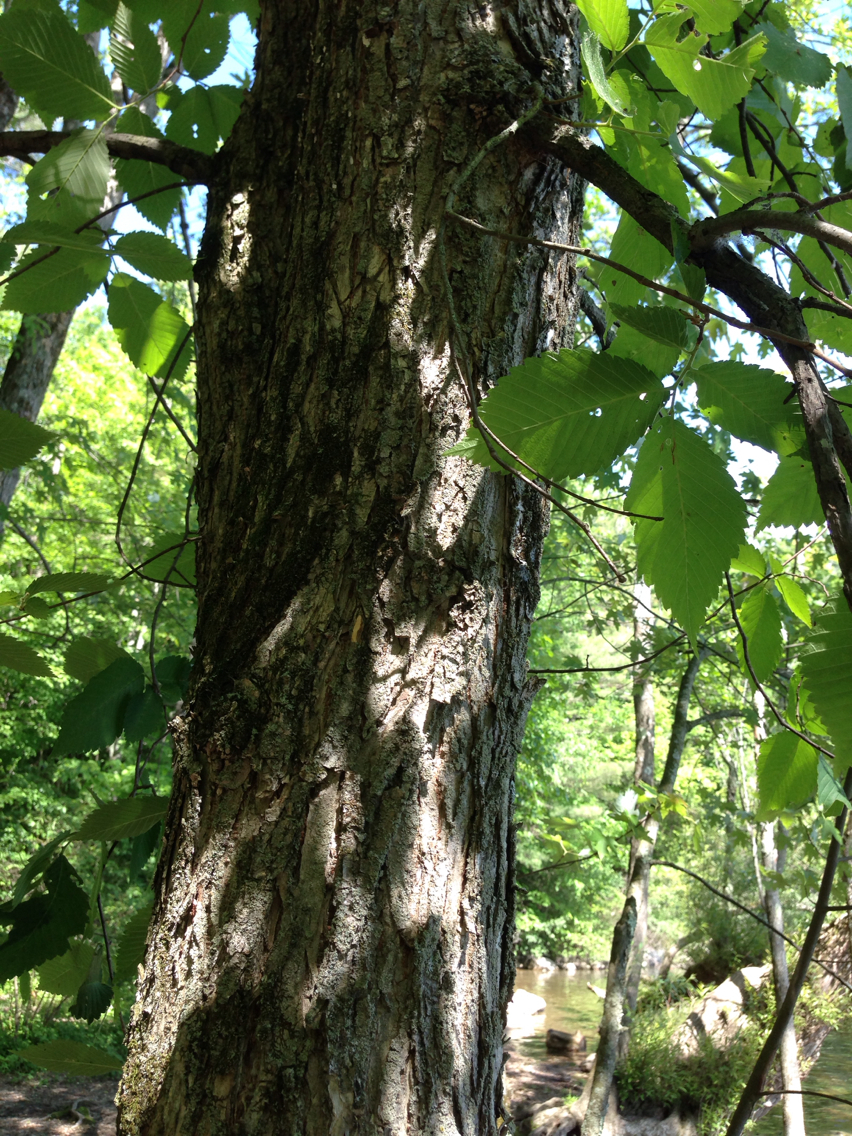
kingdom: Plantae
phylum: Tracheophyta
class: Magnoliopsida
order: Rosales
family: Ulmaceae
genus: Ulmus
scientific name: Ulmus americana
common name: American elm
